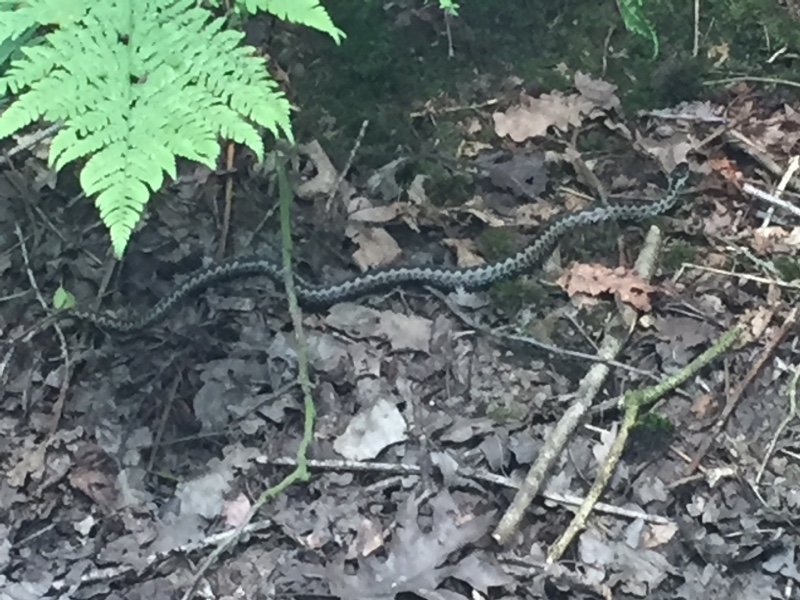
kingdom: Animalia
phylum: Chordata
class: Squamata
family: Viperidae
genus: Vipera
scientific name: Vipera berus
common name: Adder
